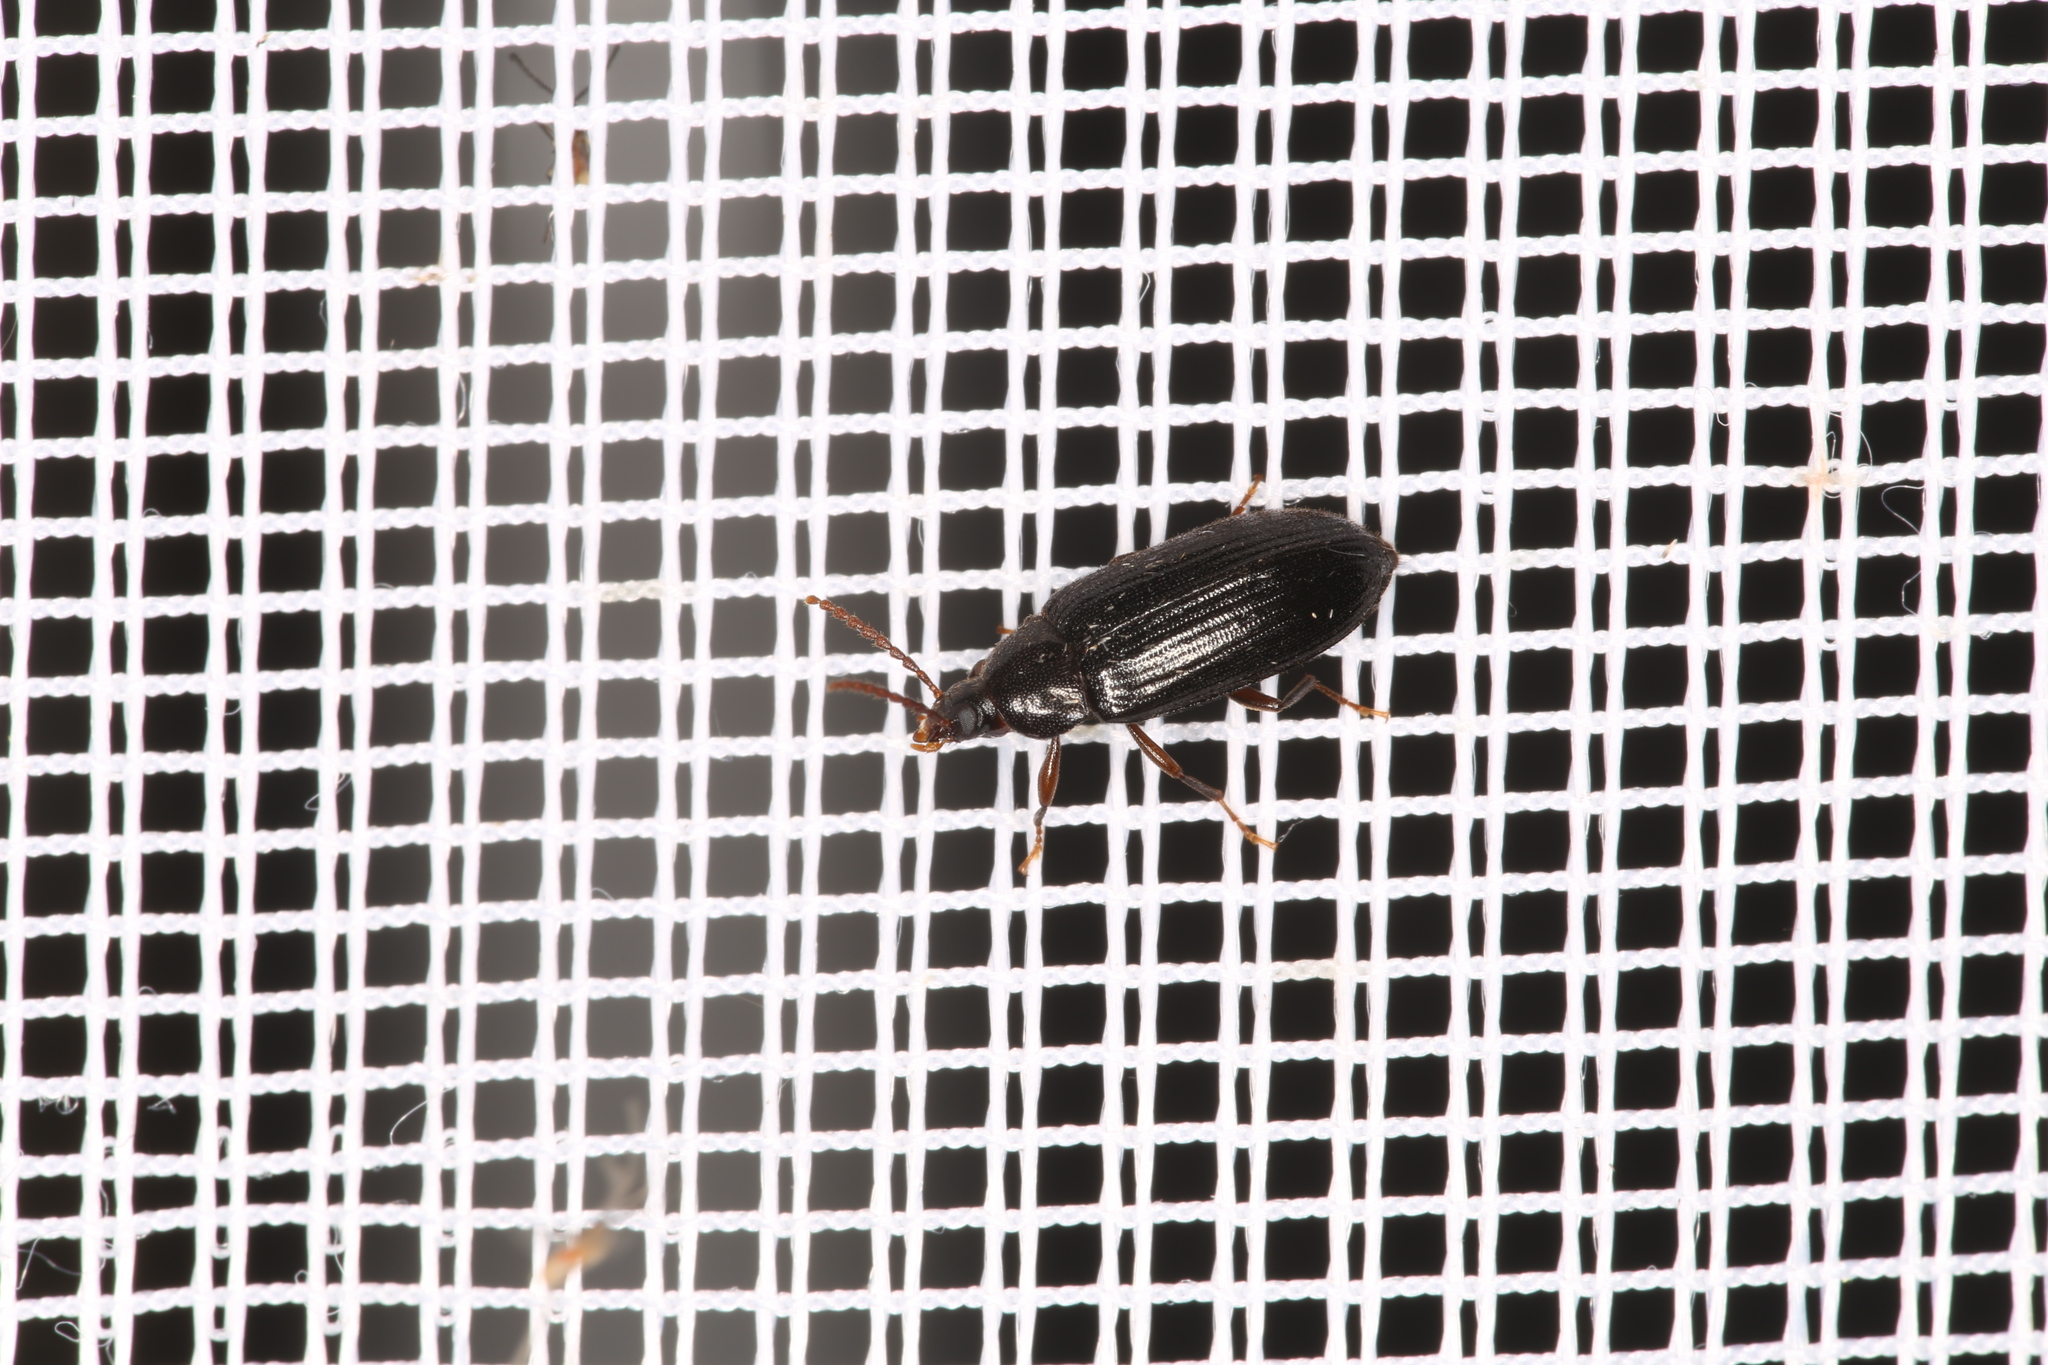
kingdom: Animalia
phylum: Arthropoda
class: Insecta
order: Coleoptera
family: Tenebrionidae
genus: Hymenophorus
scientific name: Hymenophorus avajewi
